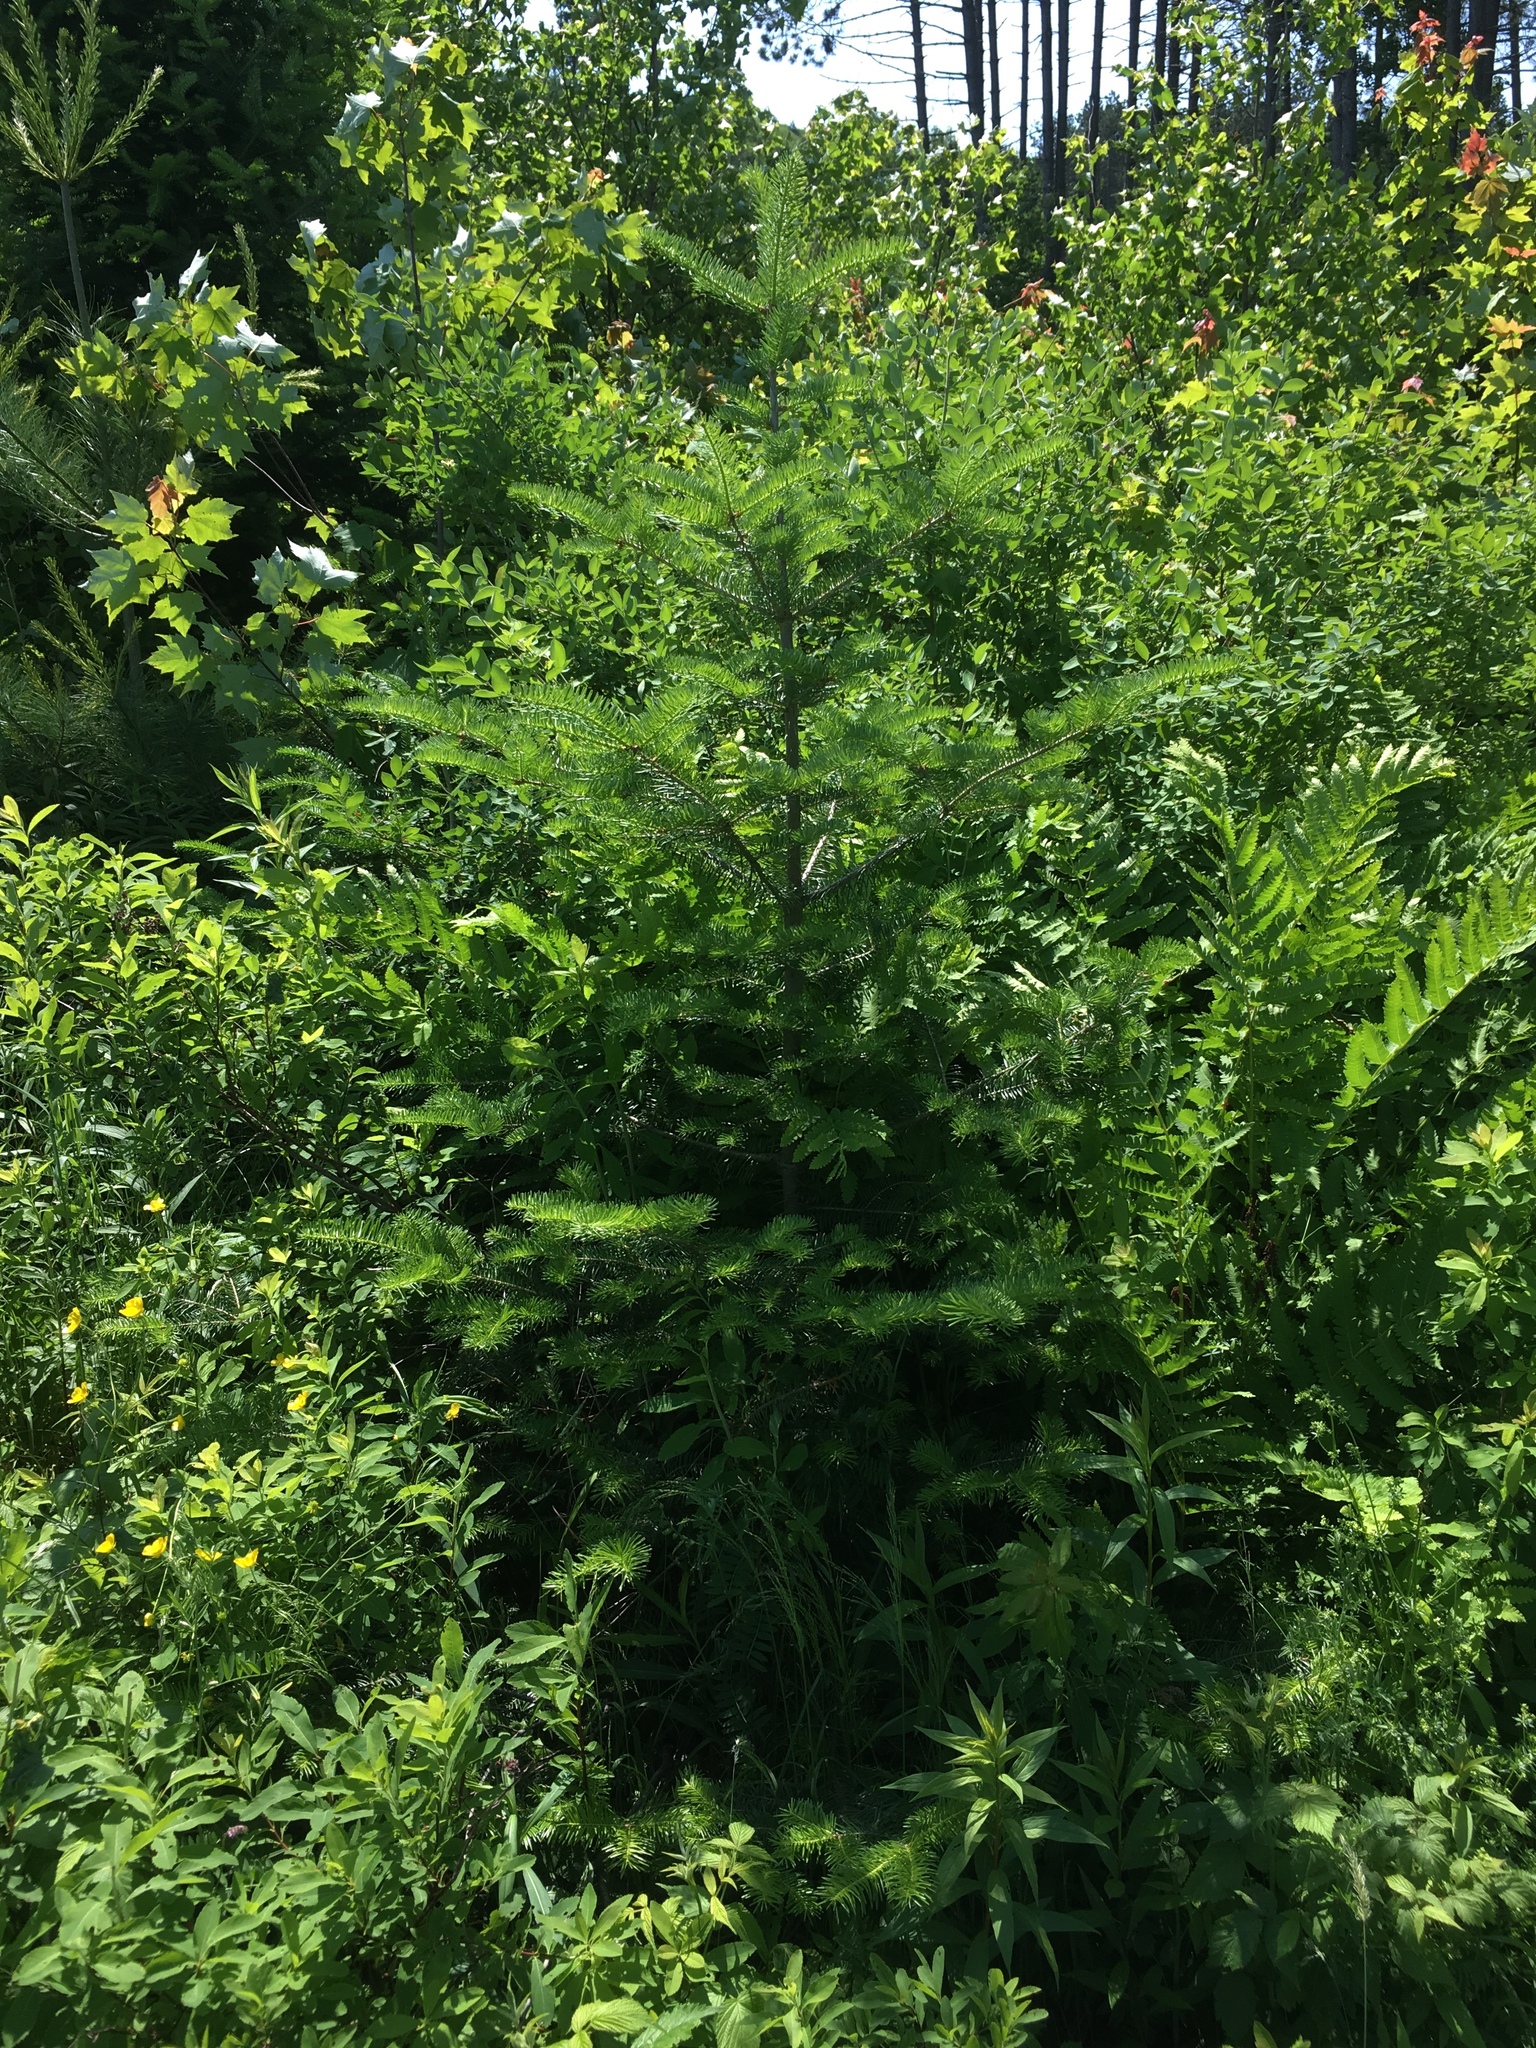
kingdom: Plantae
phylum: Tracheophyta
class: Pinopsida
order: Pinales
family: Pinaceae
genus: Abies
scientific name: Abies balsamea
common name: Balsam fir
